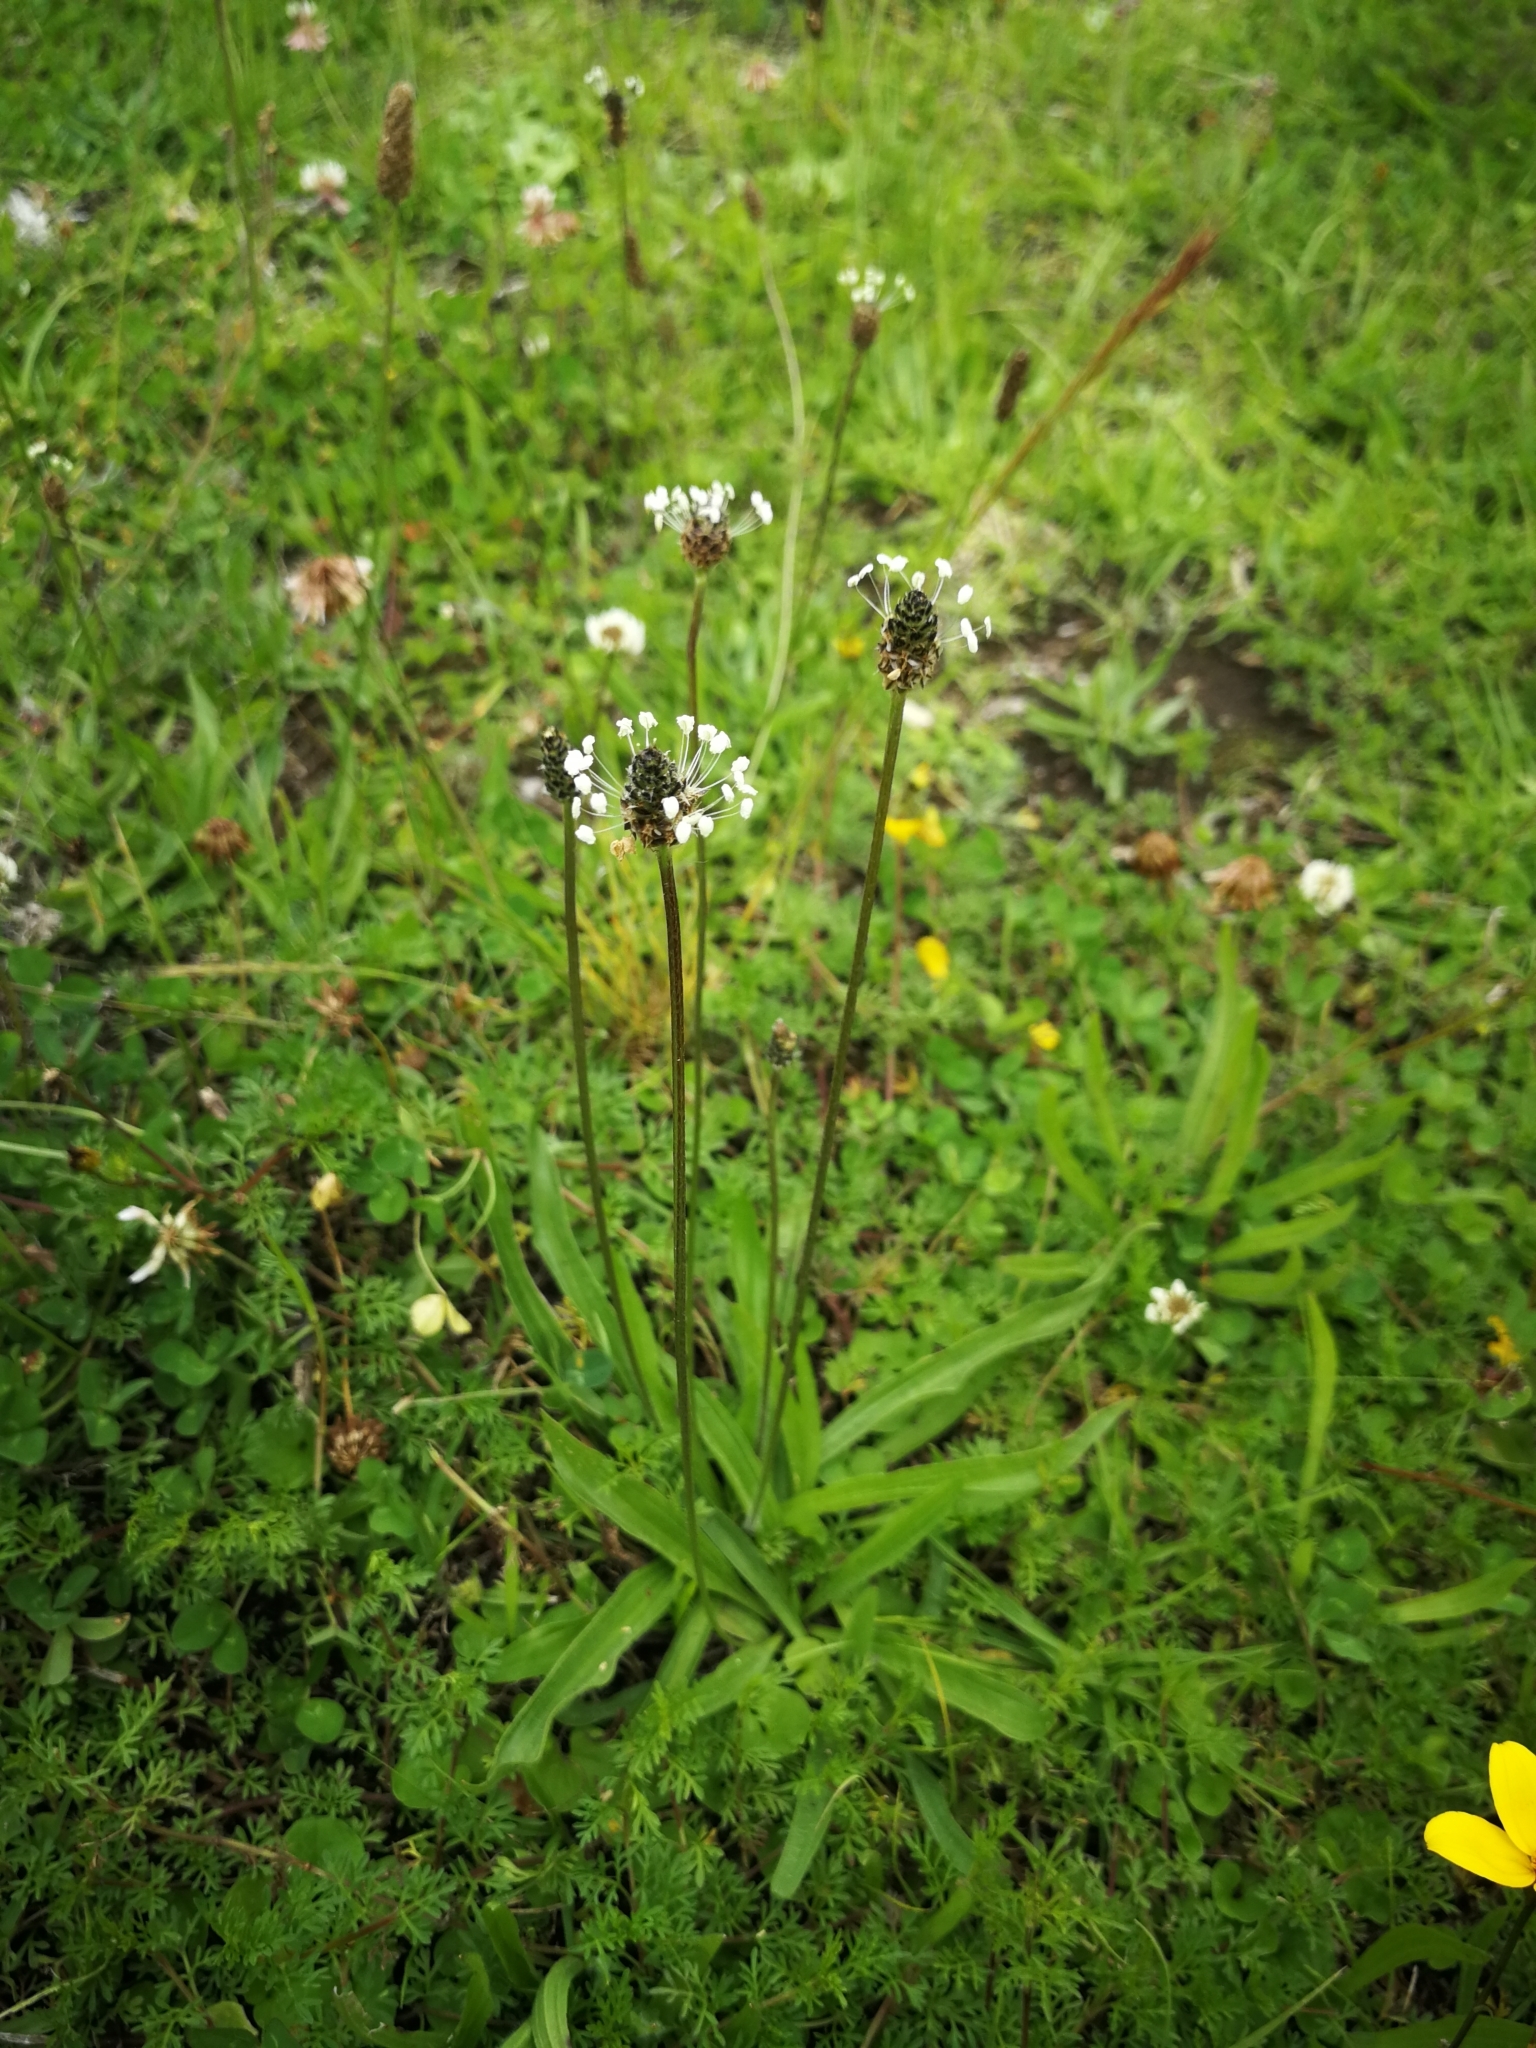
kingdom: Plantae
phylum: Tracheophyta
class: Magnoliopsida
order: Lamiales
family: Plantaginaceae
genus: Plantago
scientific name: Plantago lanceolata
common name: Ribwort plantain
